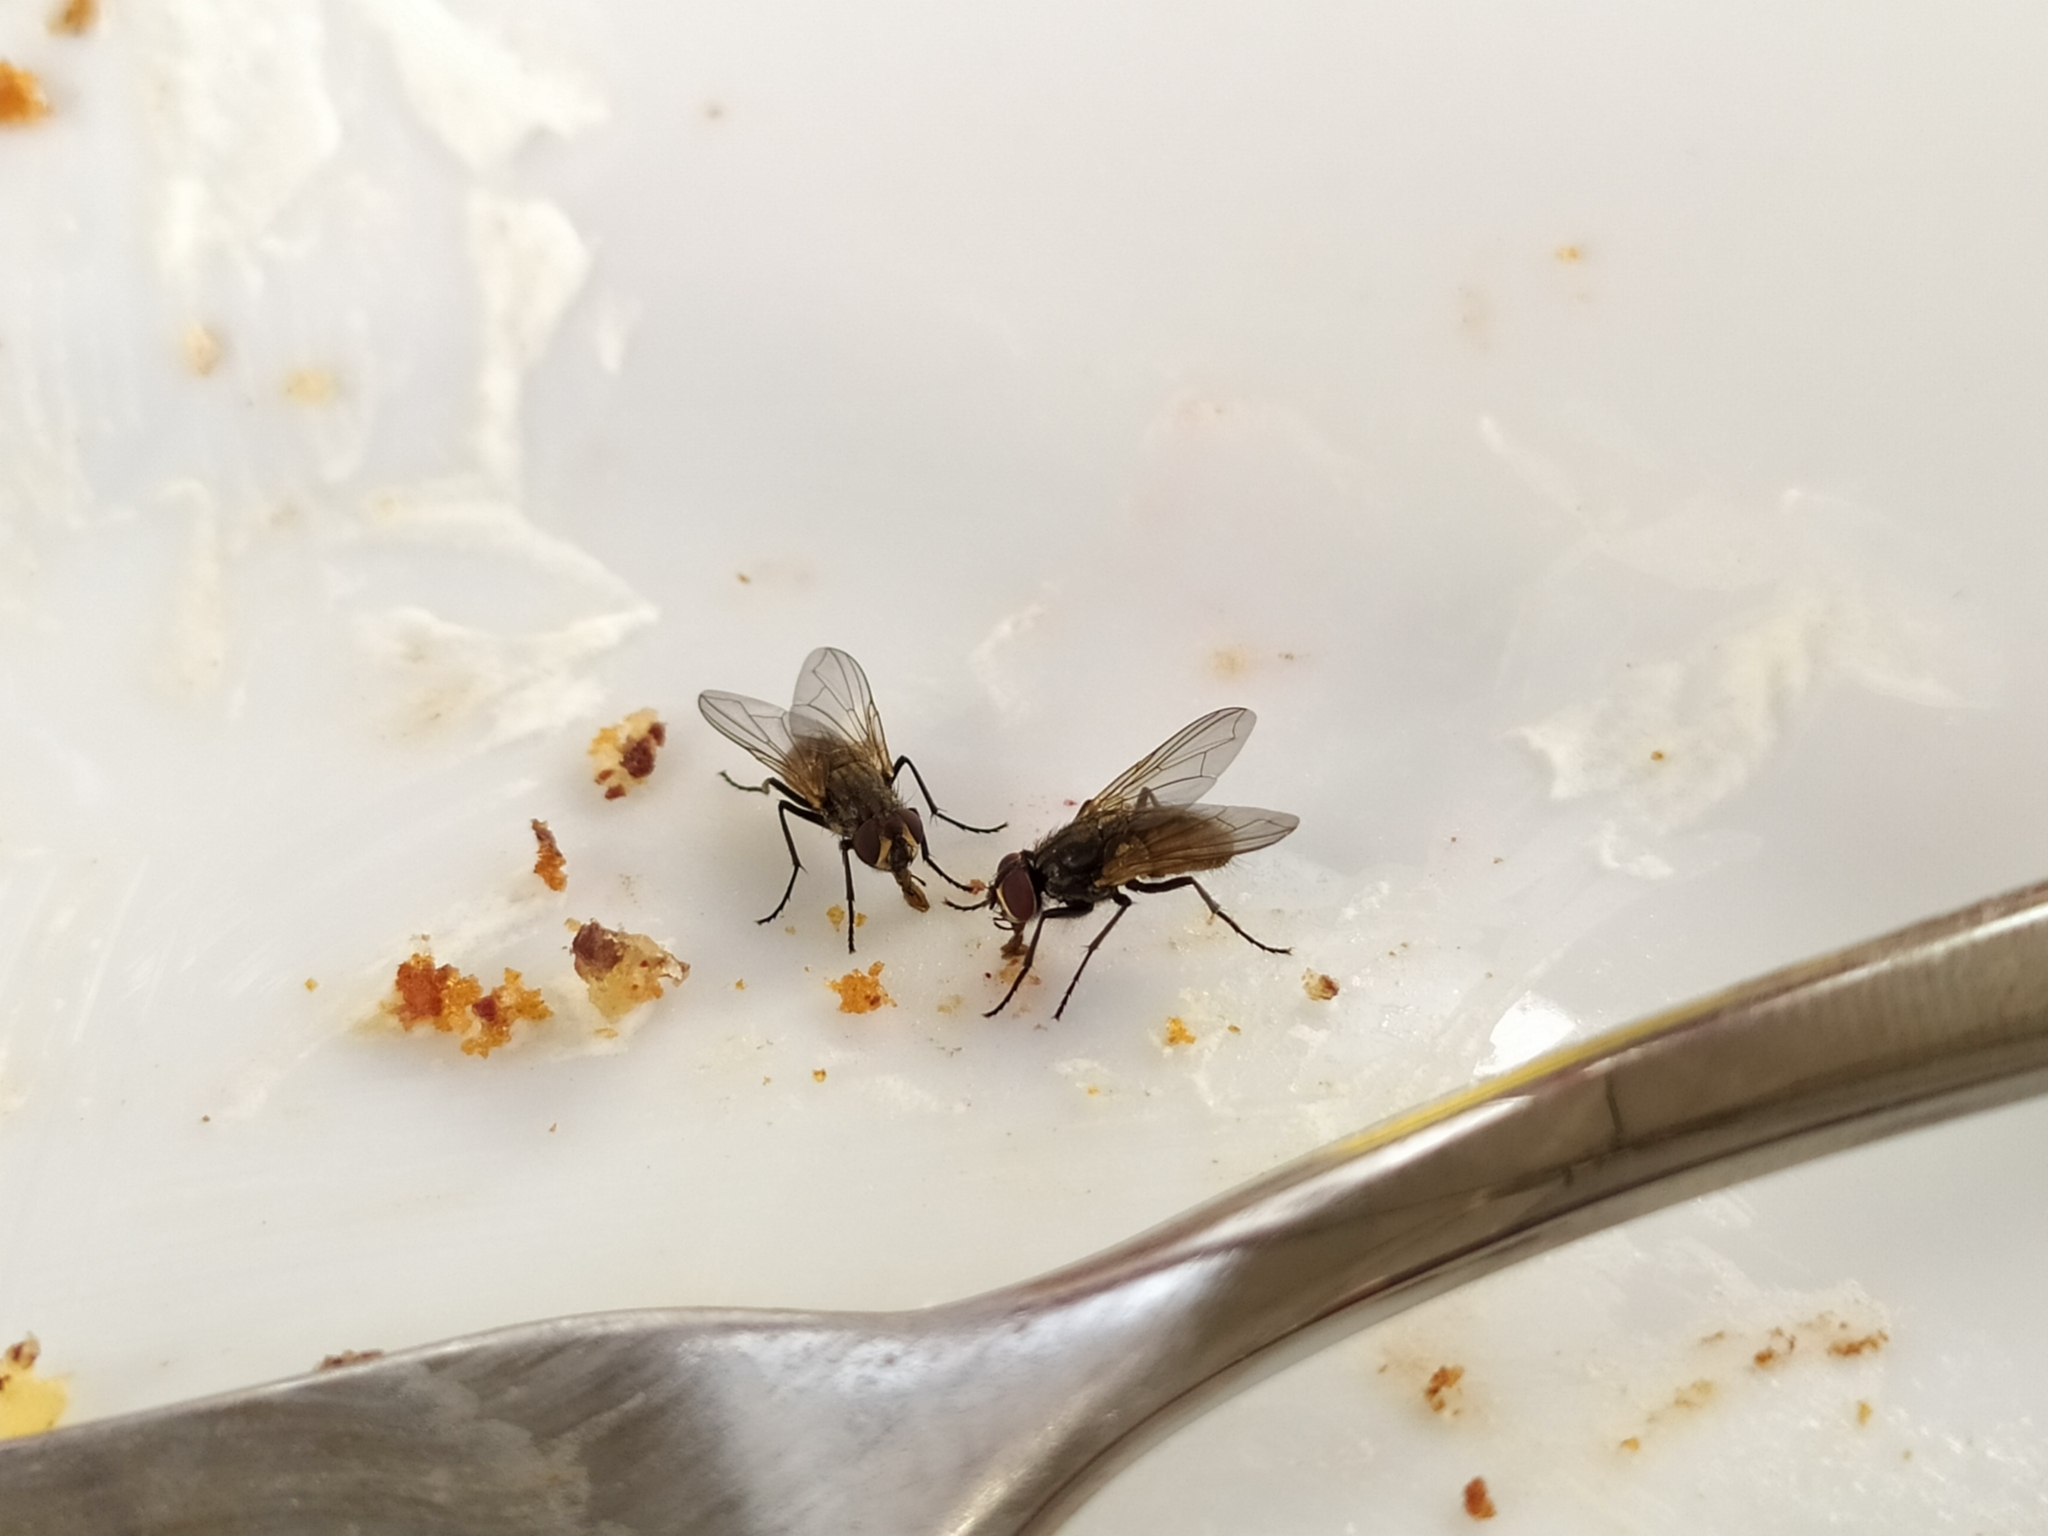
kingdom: Animalia
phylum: Arthropoda
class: Insecta
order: Diptera
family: Muscidae
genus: Musca
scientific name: Musca domestica
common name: House fly
